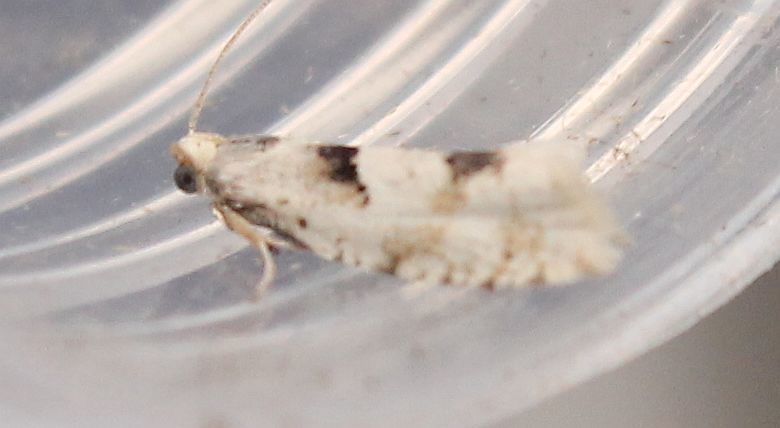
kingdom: Animalia
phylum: Arthropoda
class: Insecta
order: Lepidoptera
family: Tortricidae
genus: Epinotia
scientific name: Epinotia bilunana
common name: Crescent bell
